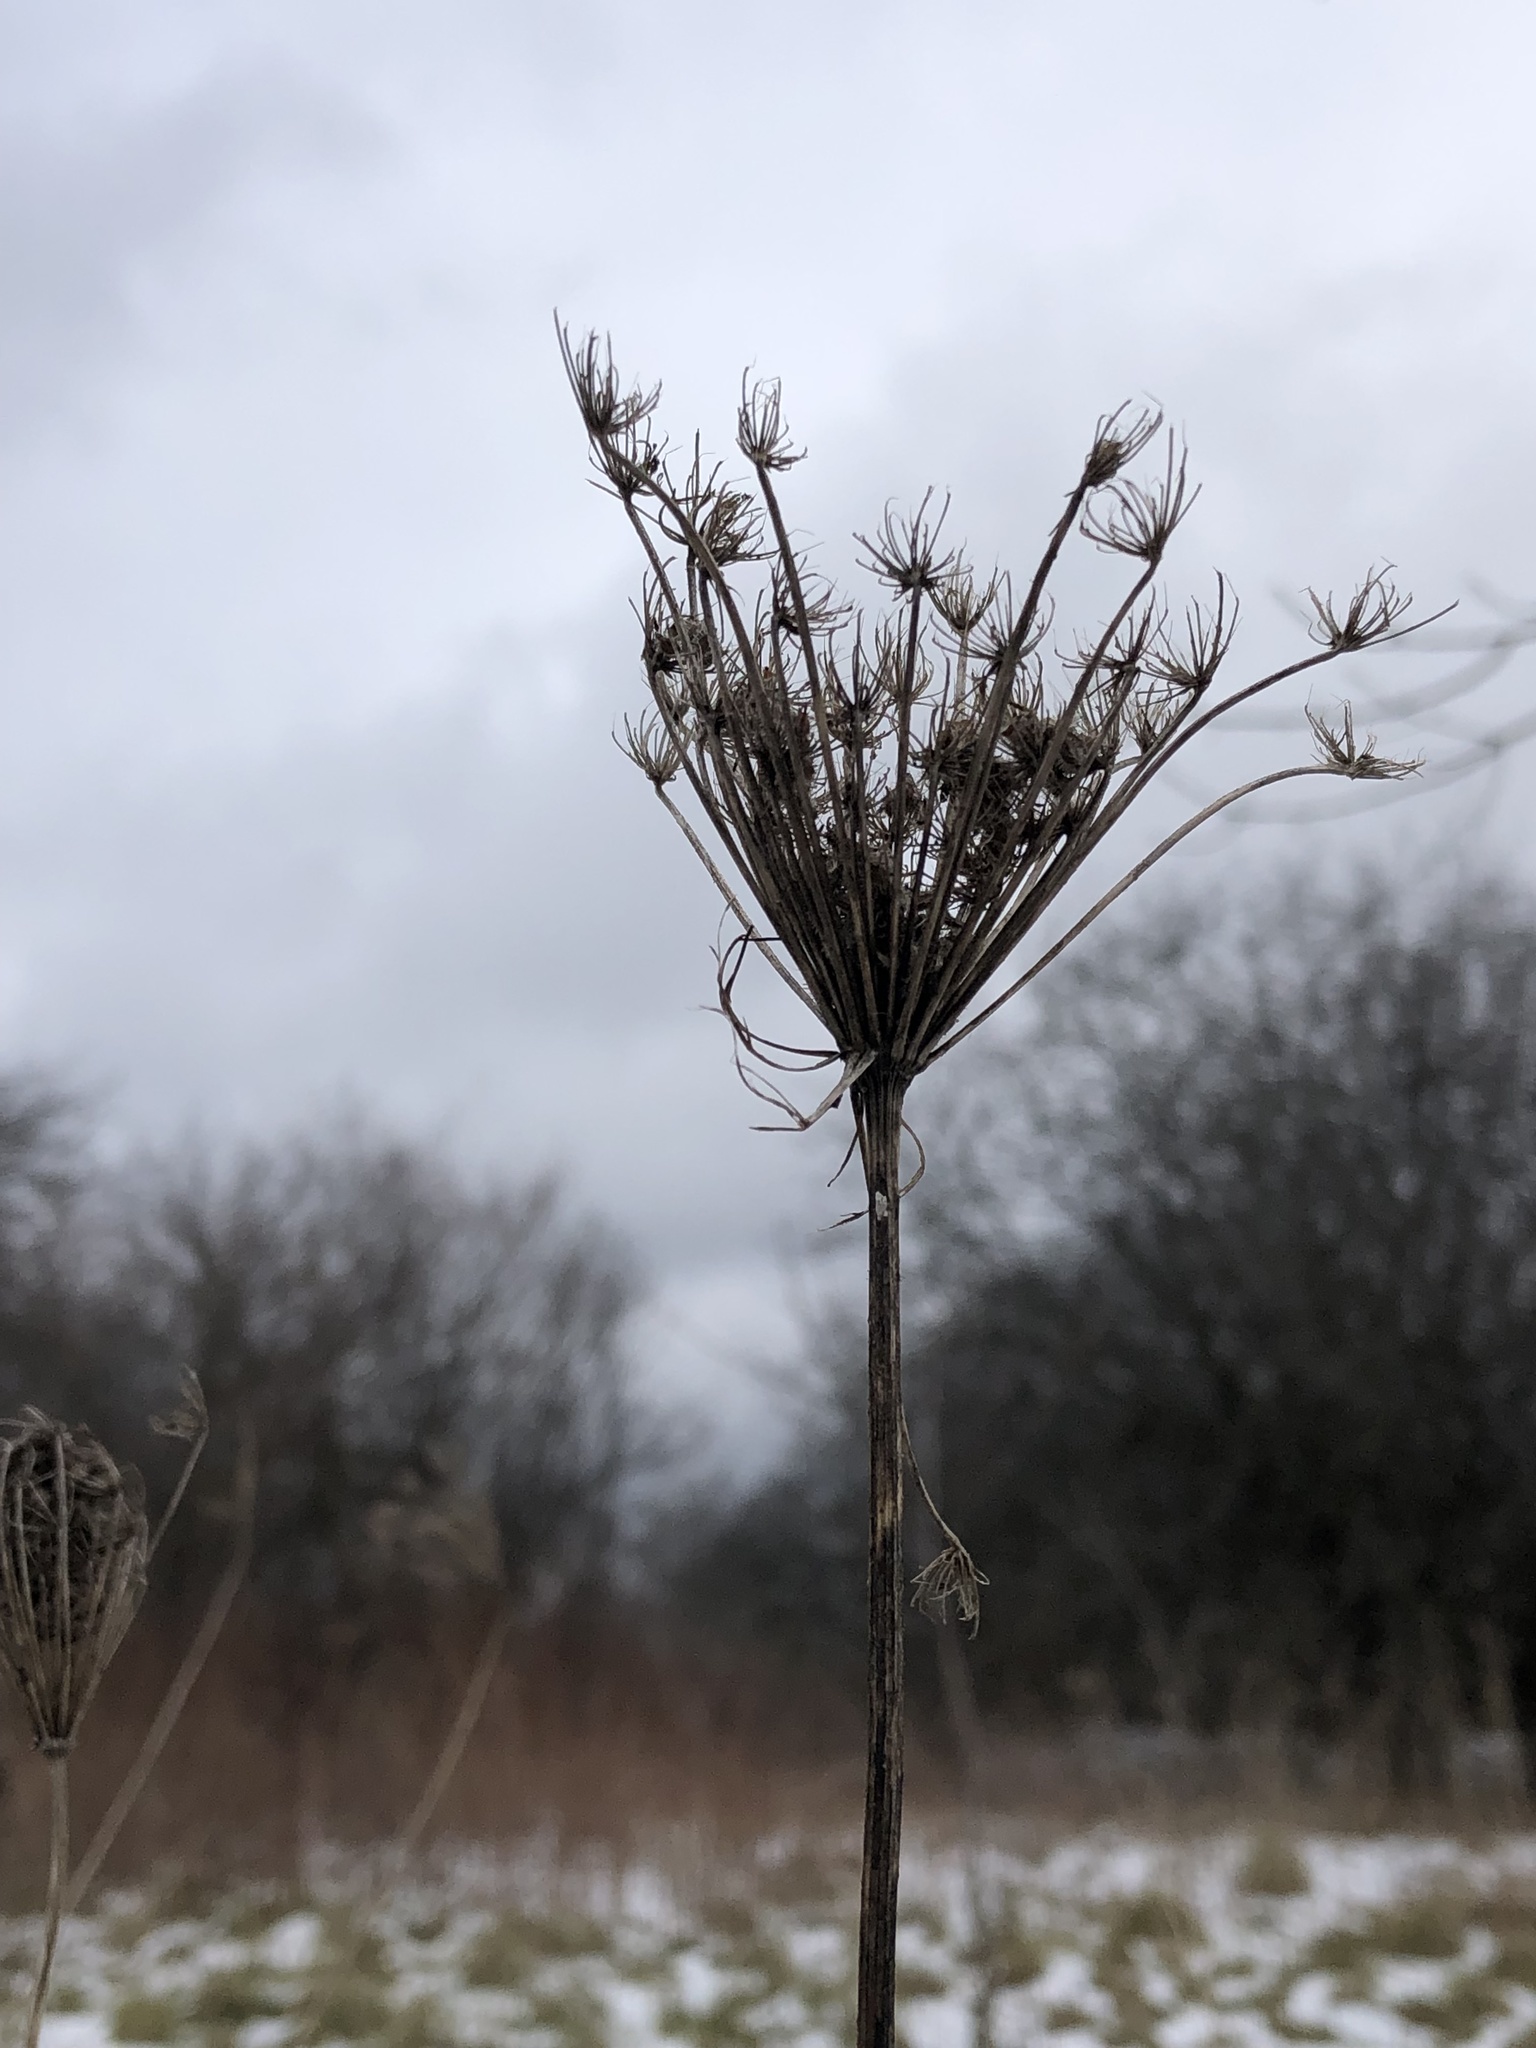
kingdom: Plantae
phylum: Tracheophyta
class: Magnoliopsida
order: Apiales
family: Apiaceae
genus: Daucus
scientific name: Daucus carota
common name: Wild carrot
